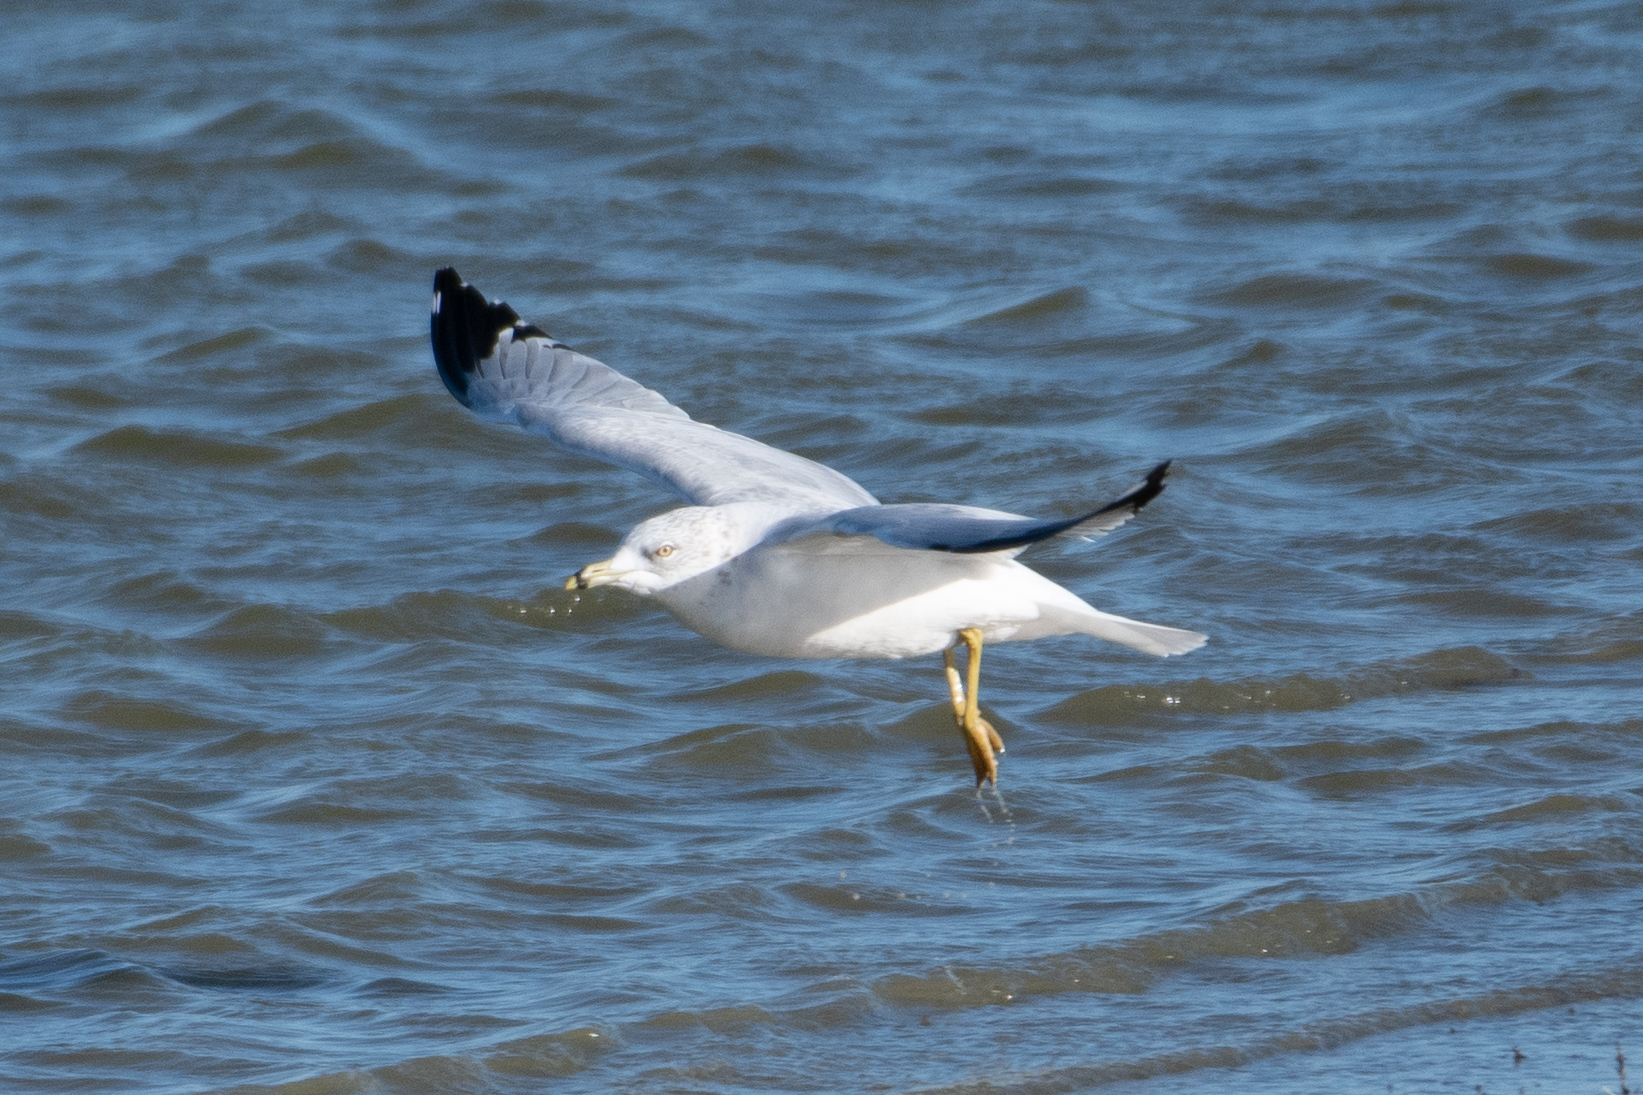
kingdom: Animalia
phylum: Chordata
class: Aves
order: Charadriiformes
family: Laridae
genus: Larus
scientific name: Larus delawarensis
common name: Ring-billed gull
